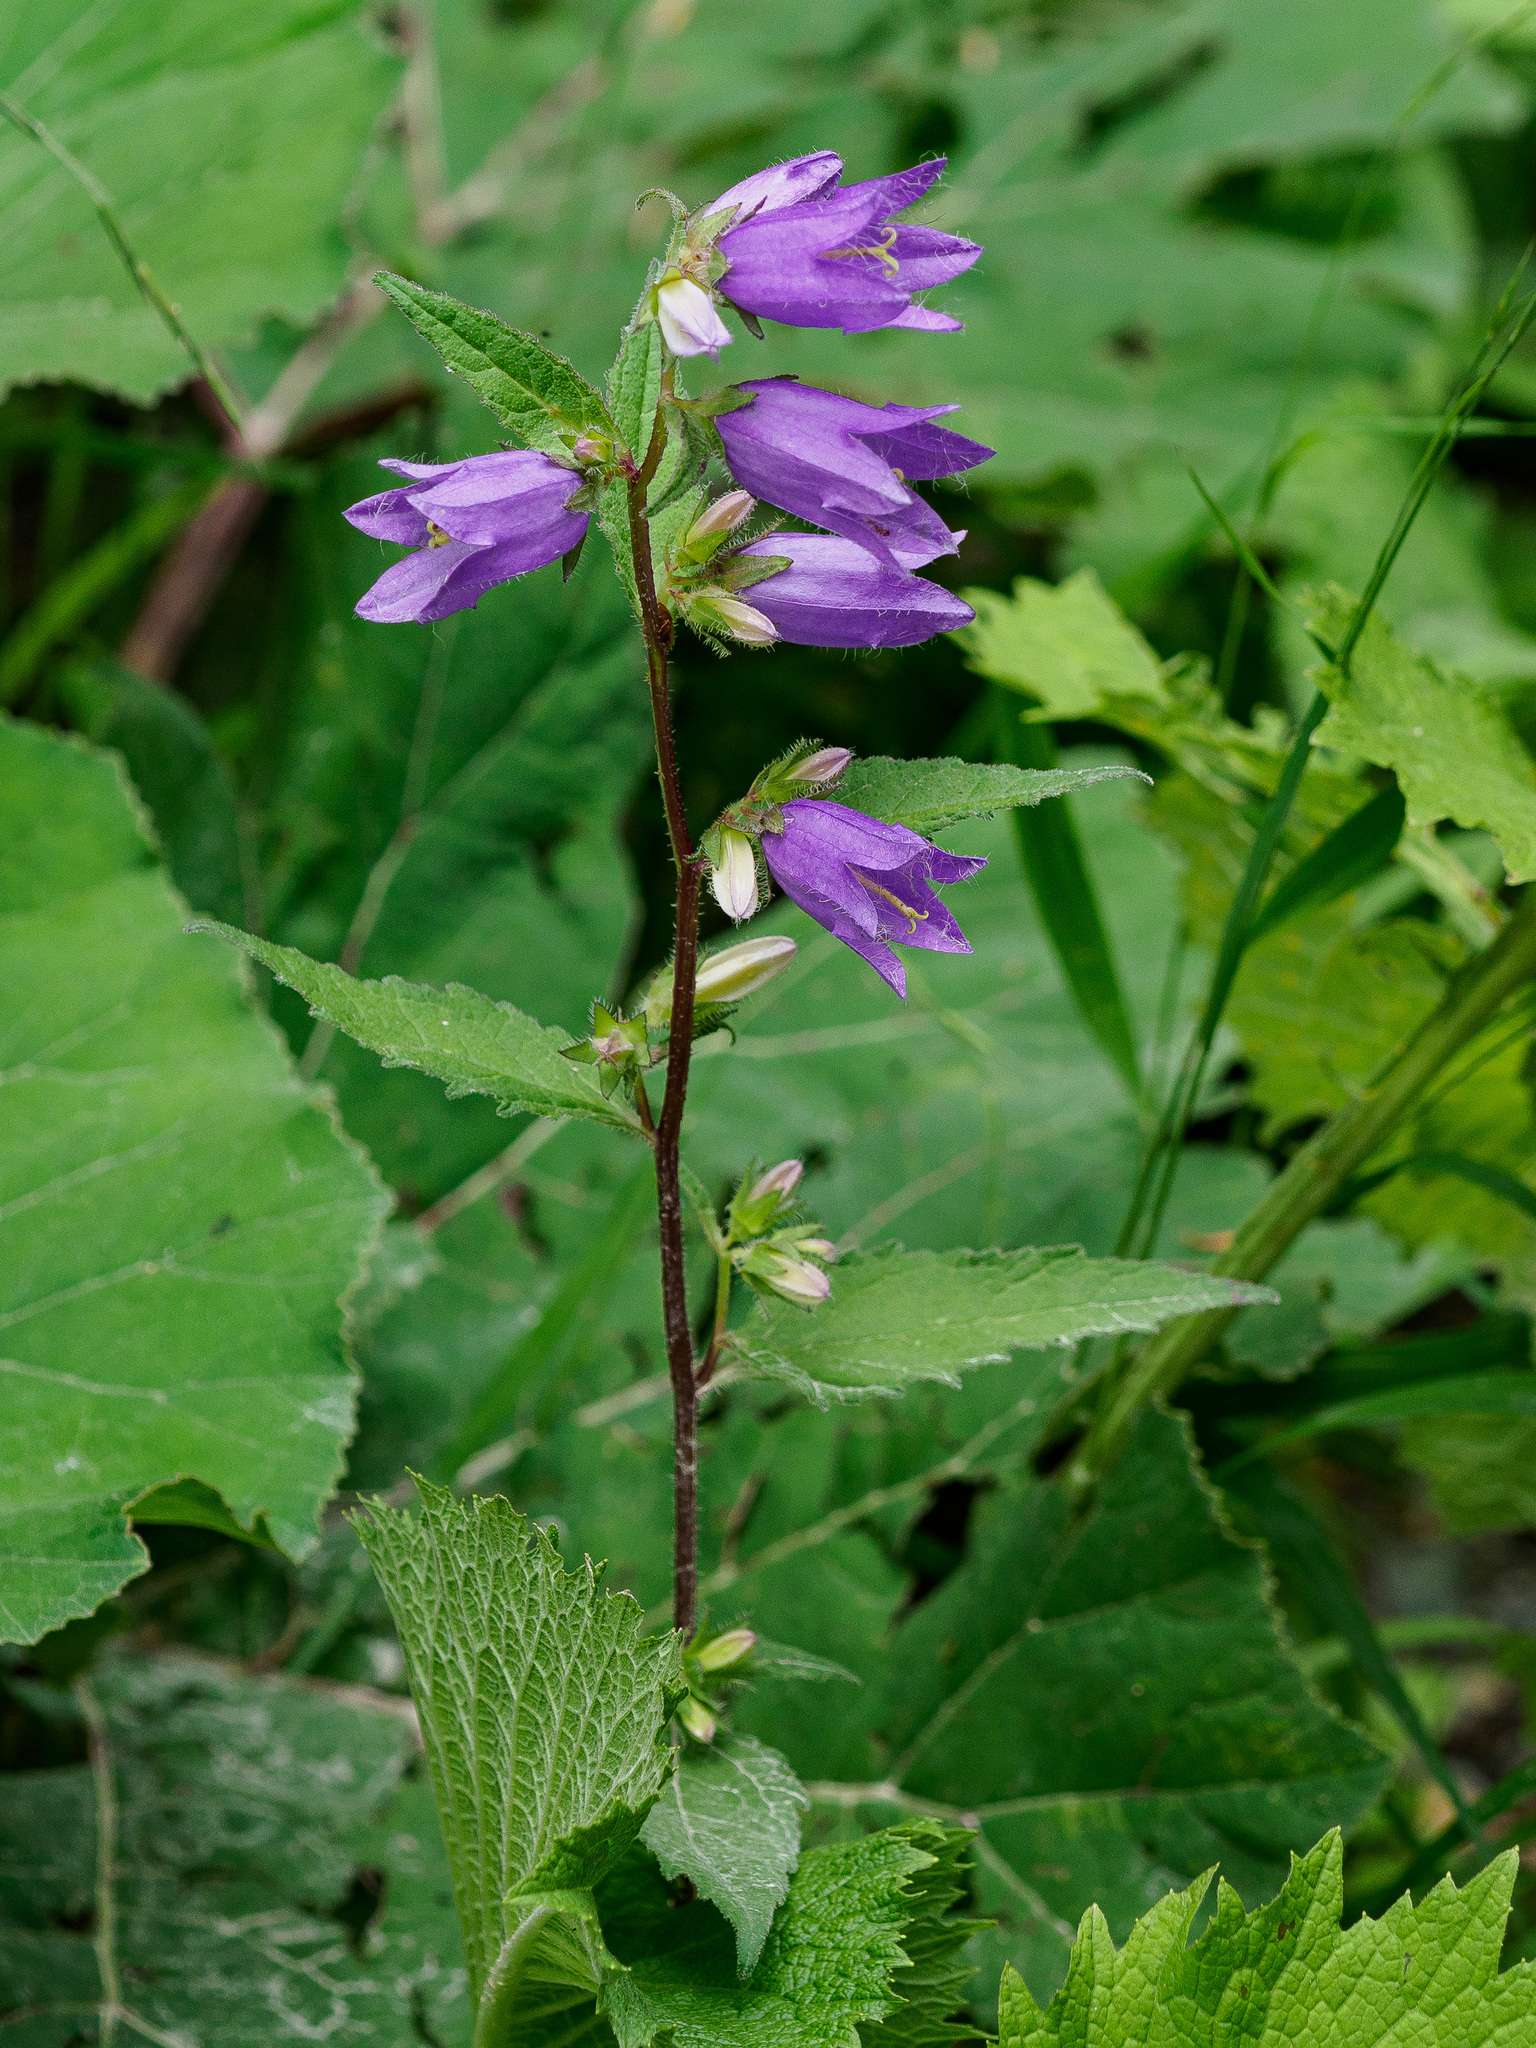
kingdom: Plantae
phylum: Tracheophyta
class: Magnoliopsida
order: Asterales
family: Campanulaceae
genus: Campanula
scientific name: Campanula trachelium
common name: Nettle-leaved bellflower
